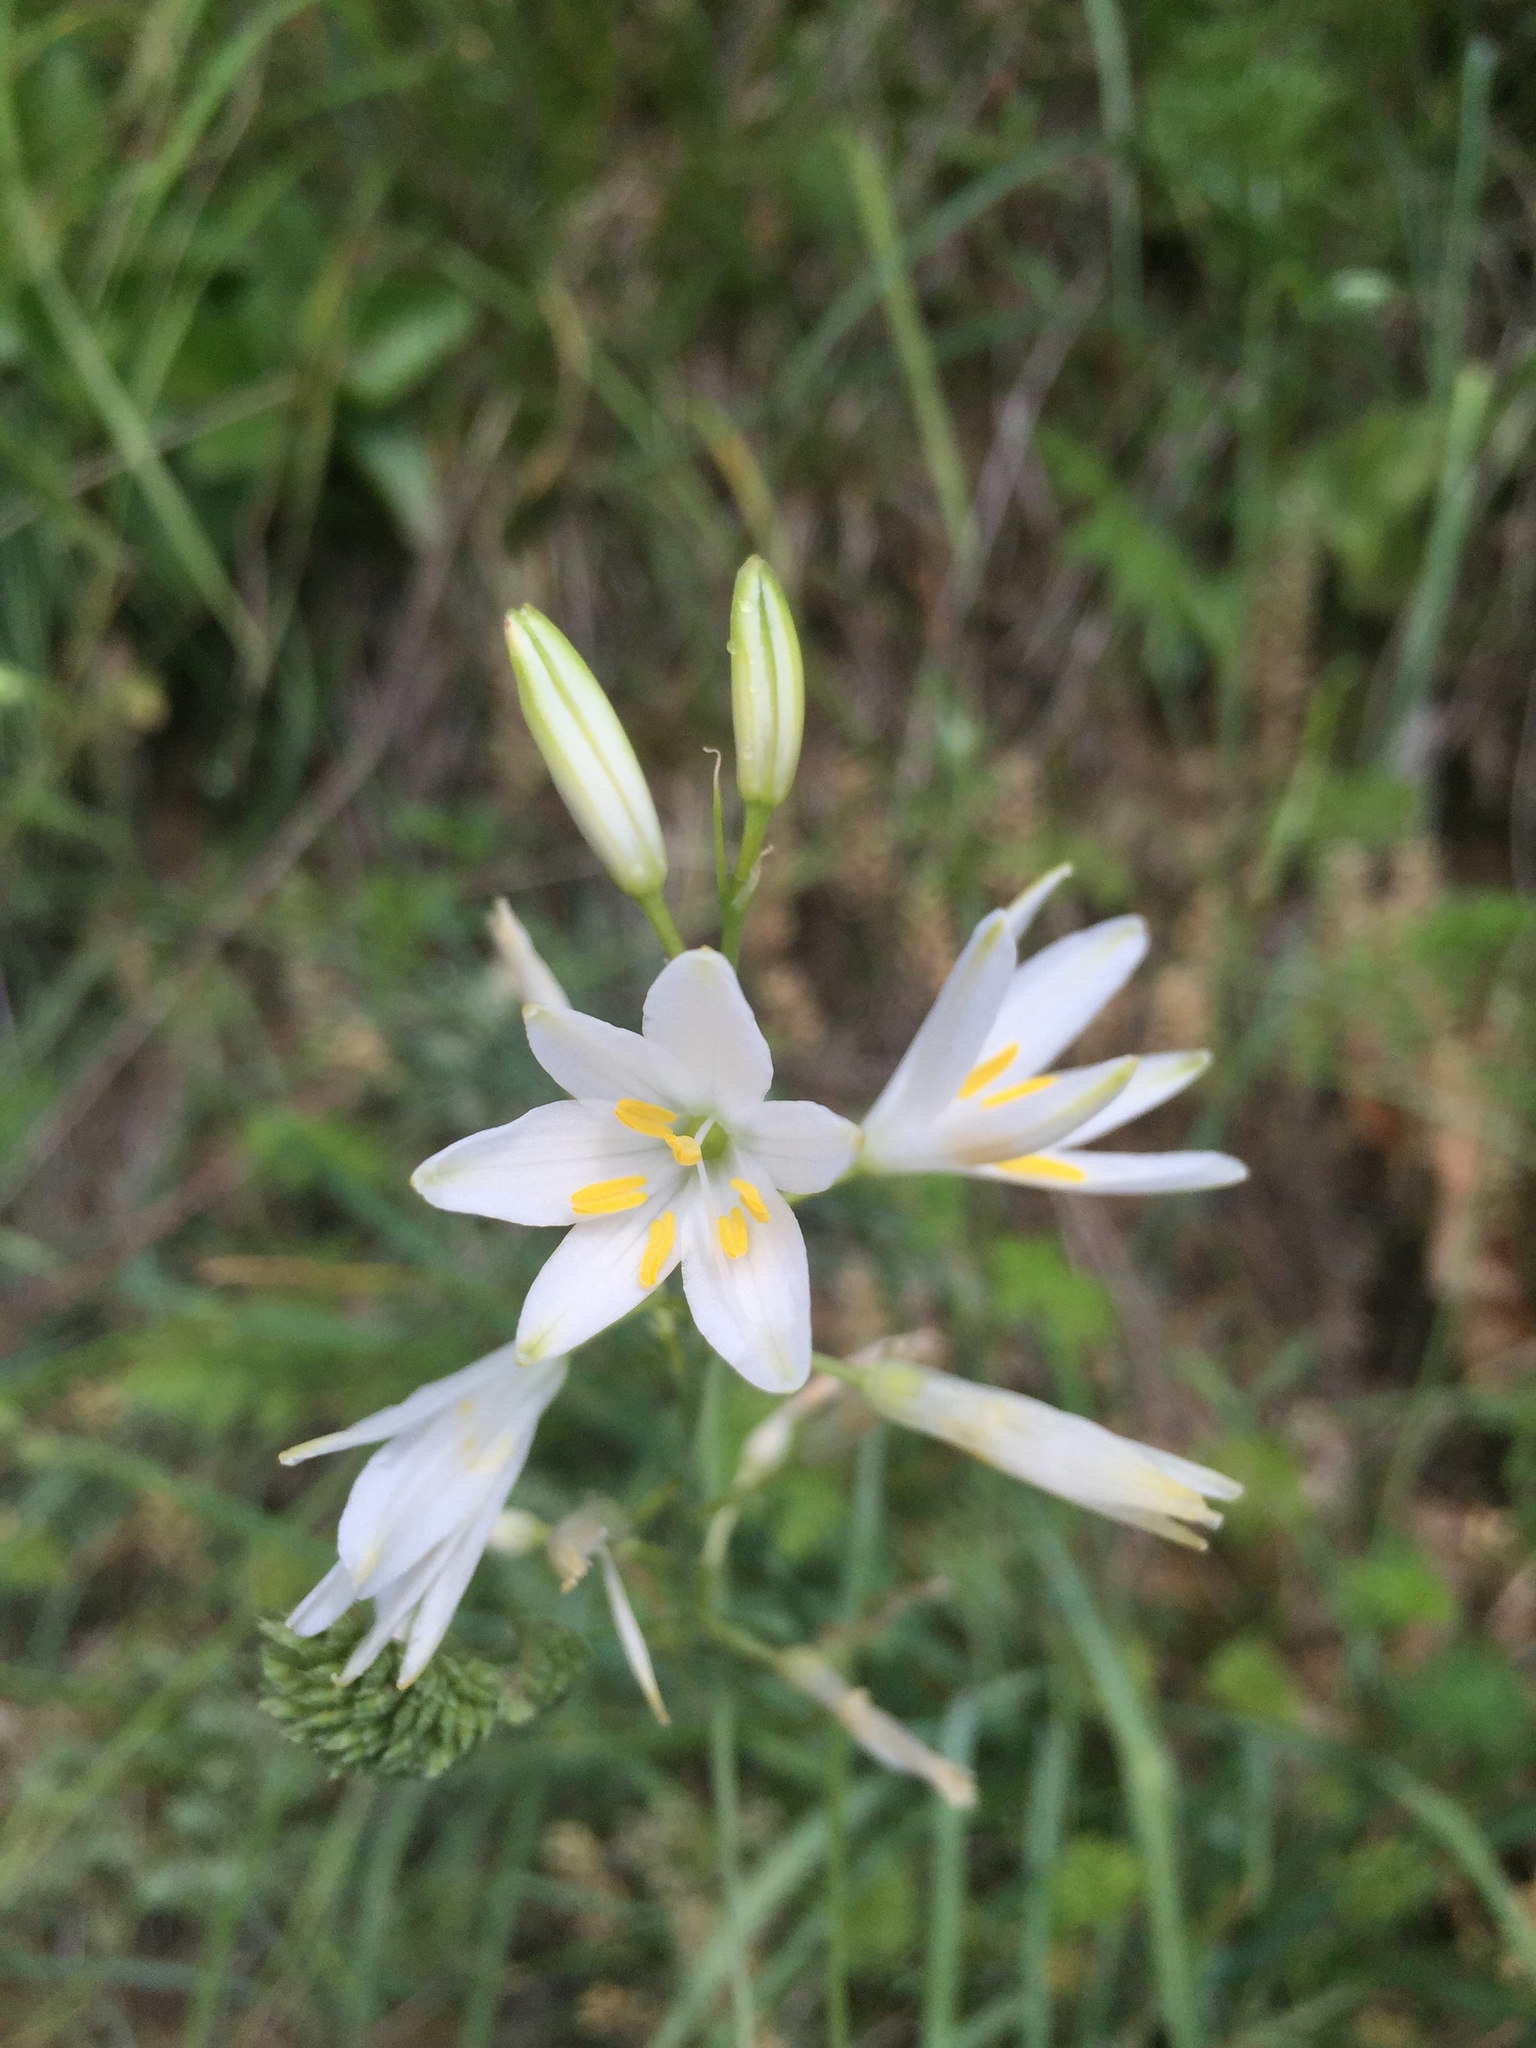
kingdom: Plantae
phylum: Tracheophyta
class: Liliopsida
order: Asparagales
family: Asparagaceae
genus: Anthericum
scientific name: Anthericum liliago
